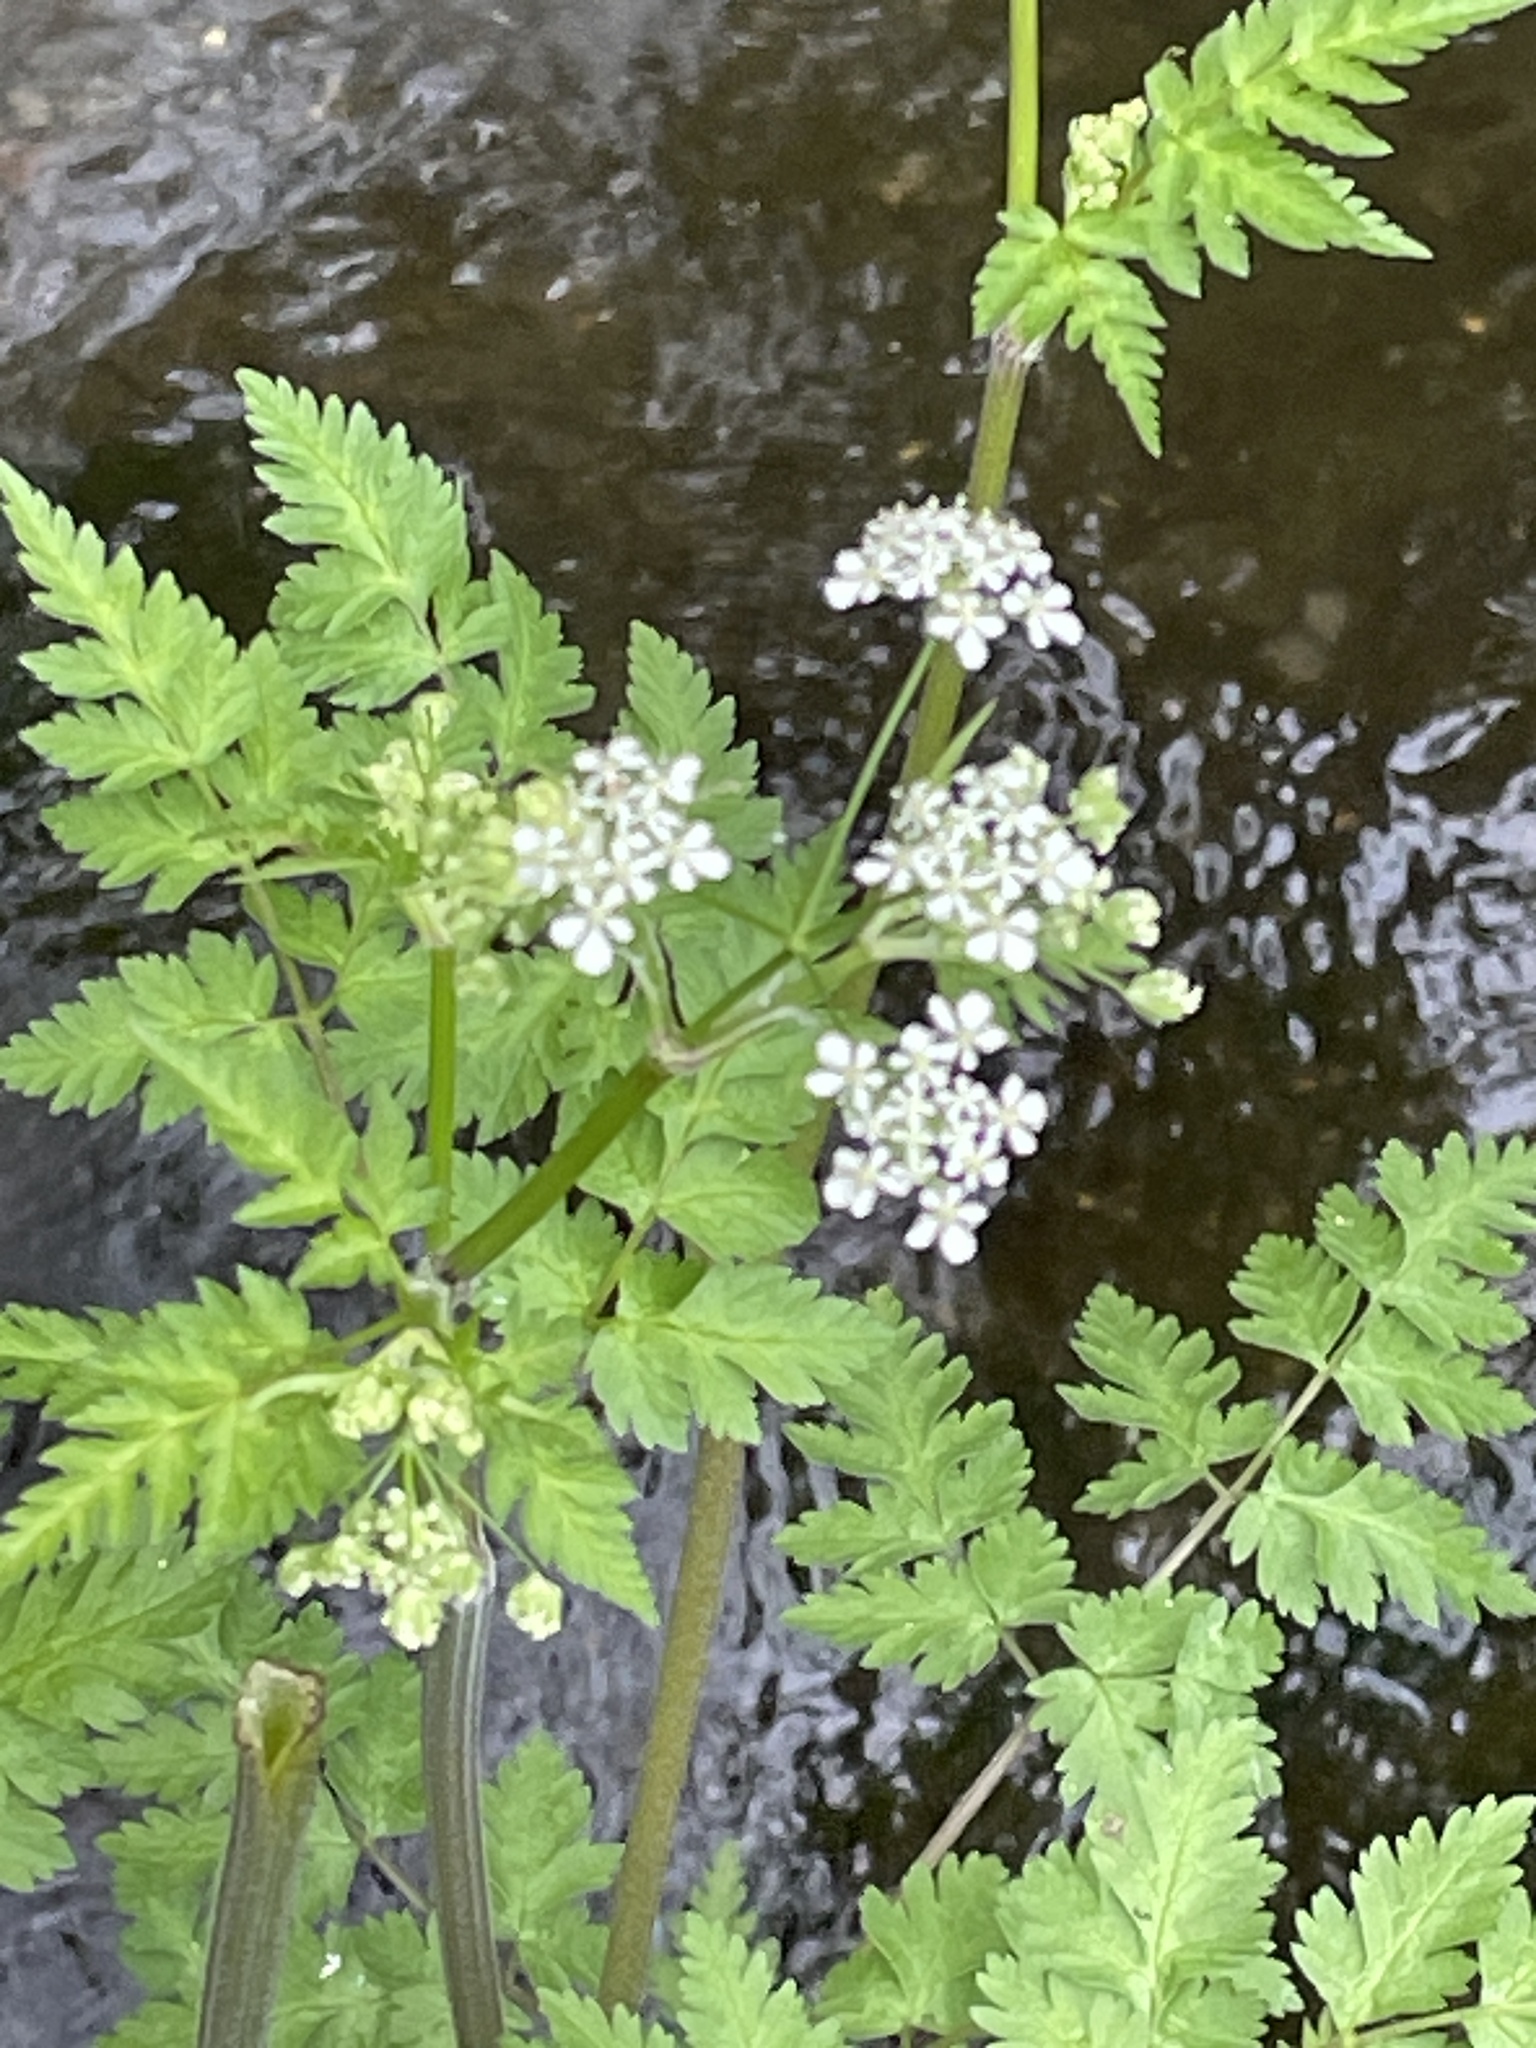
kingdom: Plantae
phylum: Tracheophyta
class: Magnoliopsida
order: Apiales
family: Apiaceae
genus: Anthriscus
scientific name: Anthriscus sylvestris
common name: Cow parsley
